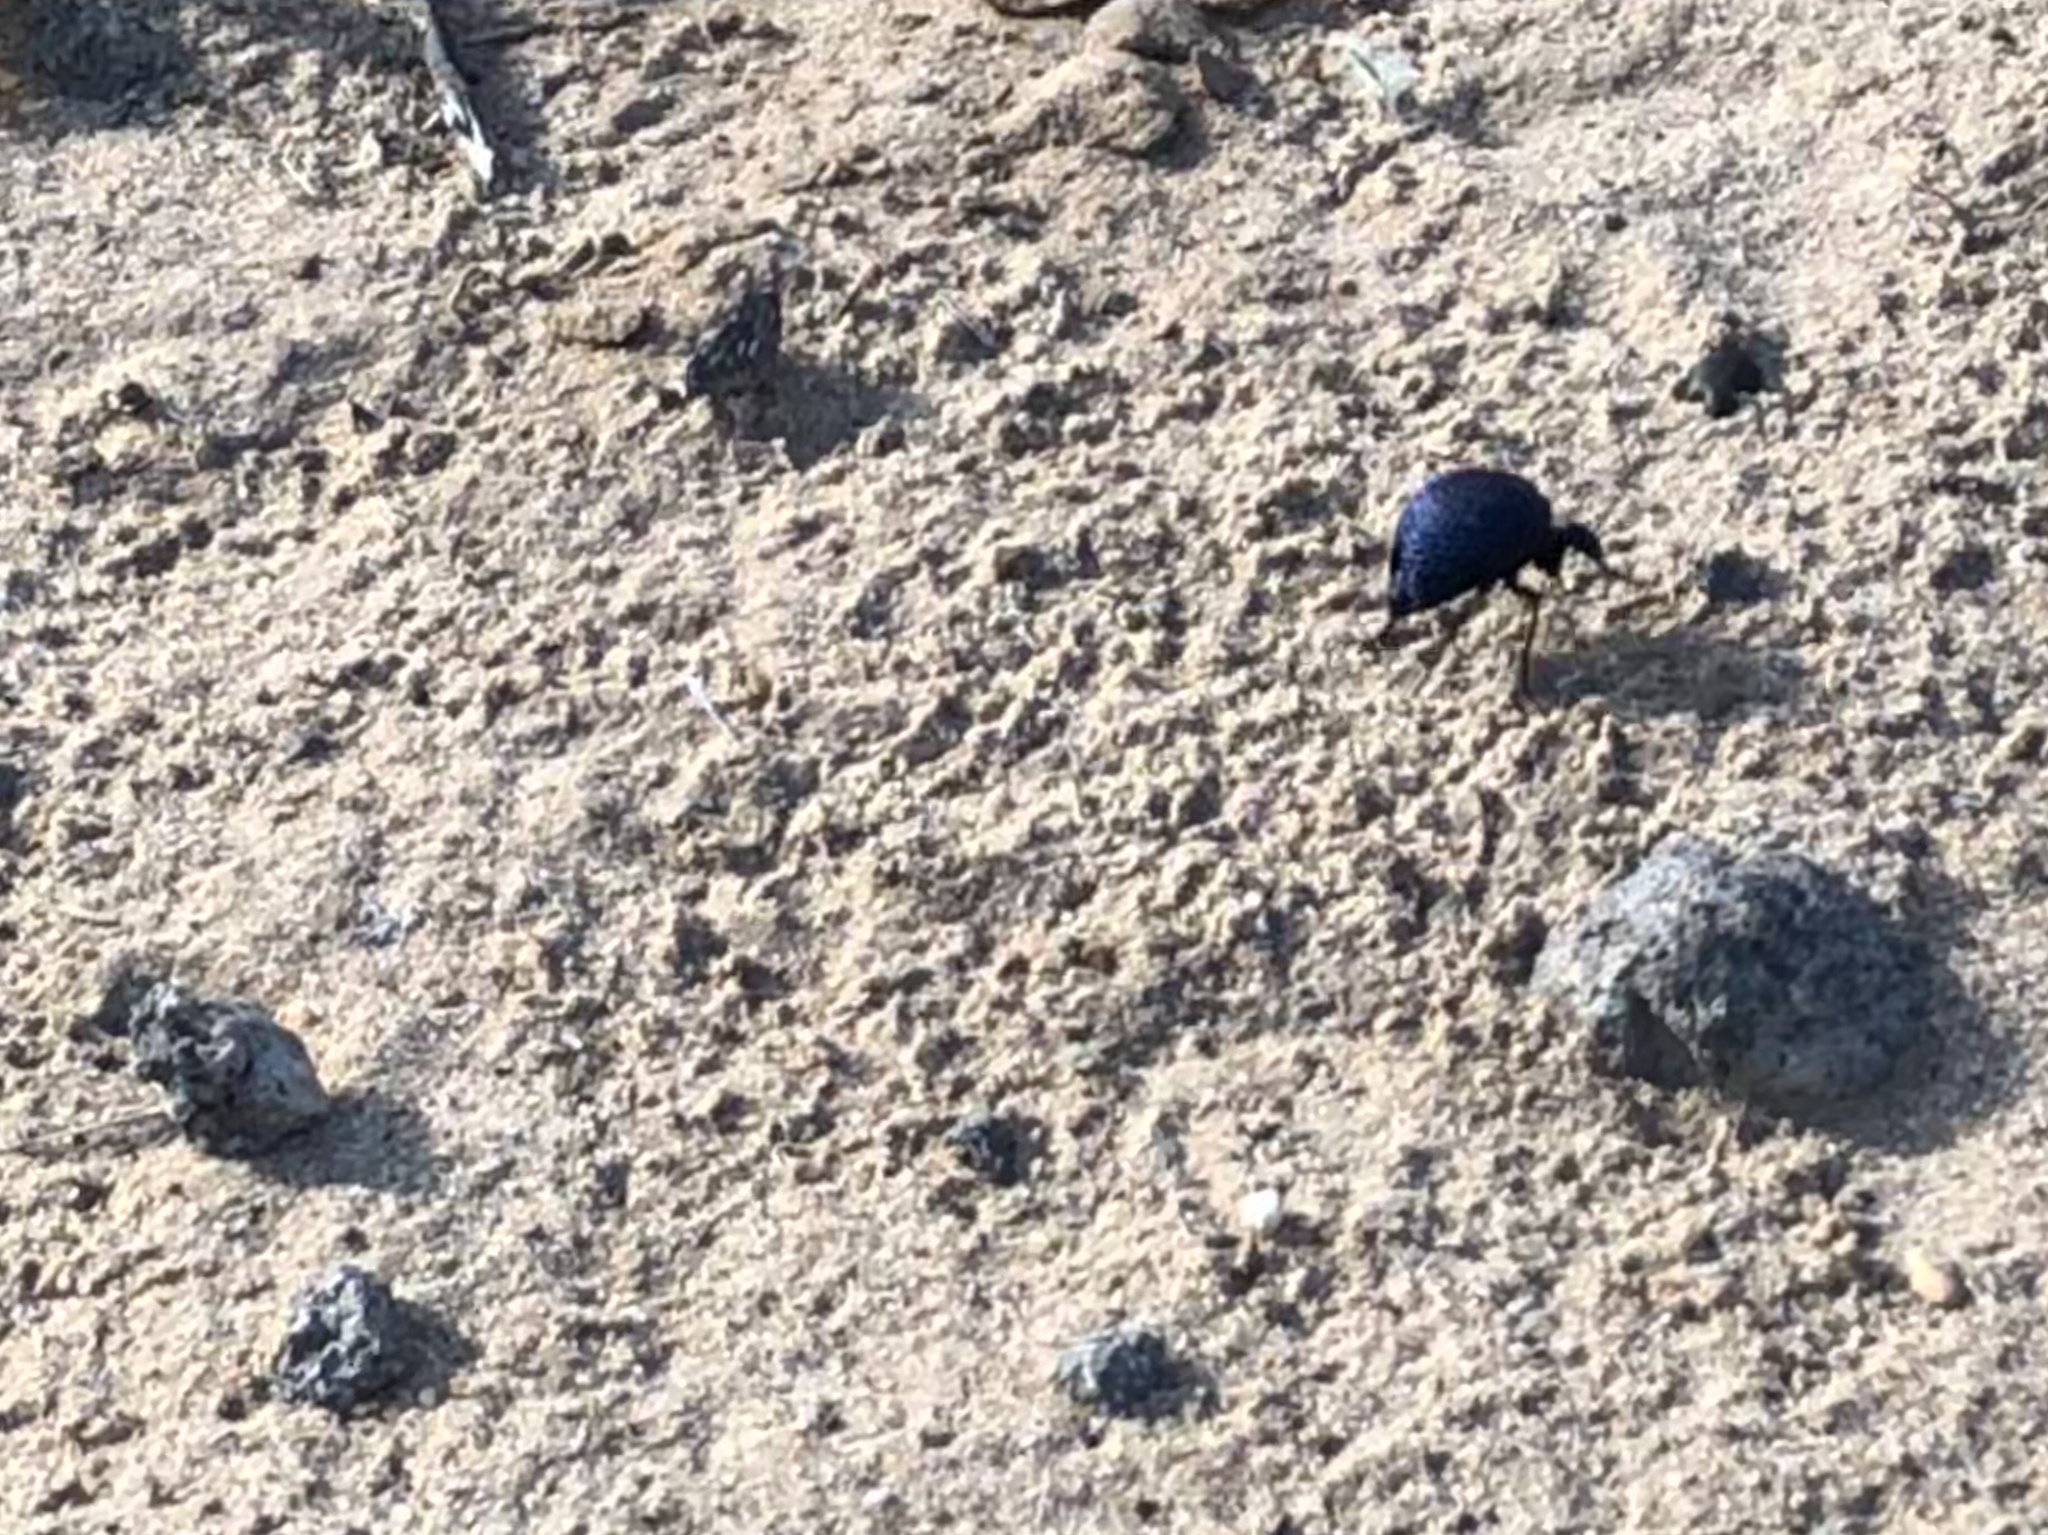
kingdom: Animalia
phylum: Arthropoda
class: Insecta
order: Coleoptera
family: Meloidae
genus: Cysteodemus
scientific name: Cysteodemus wislizeni
